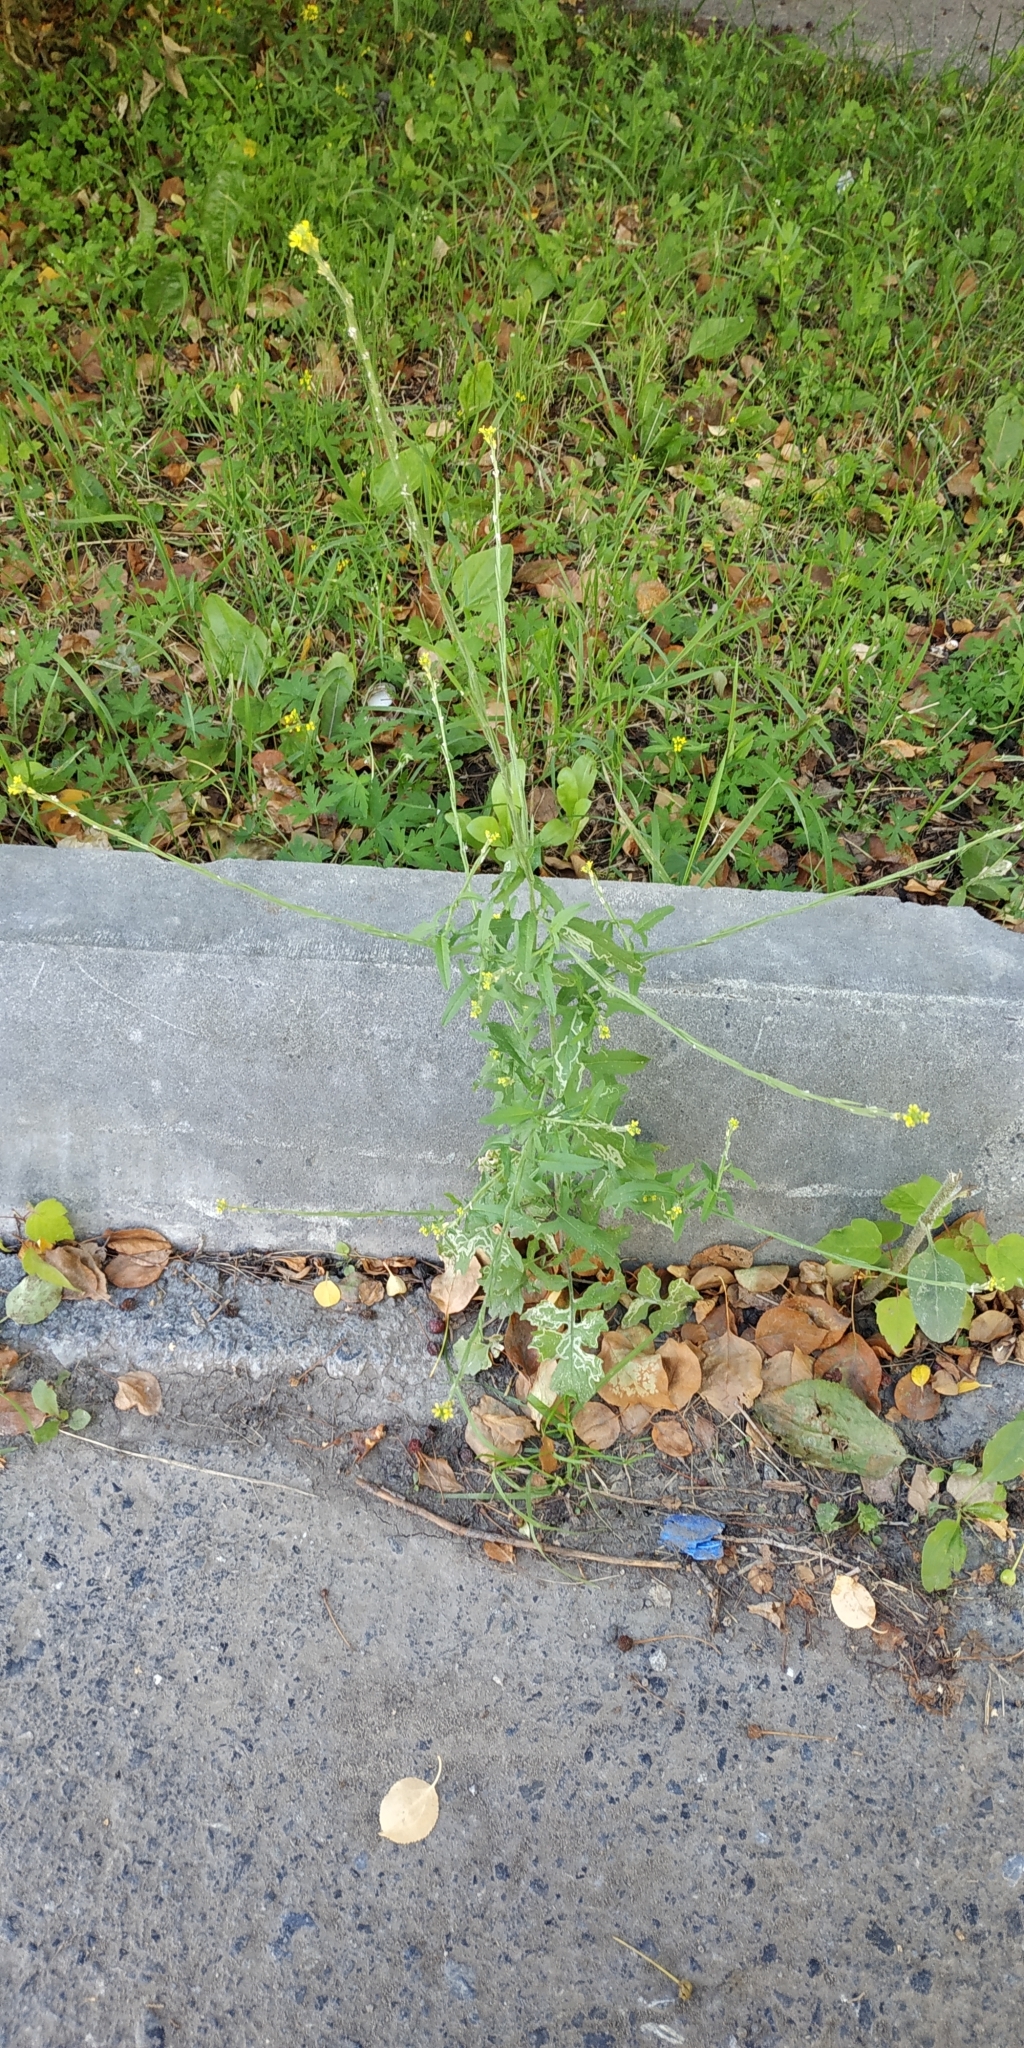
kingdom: Plantae
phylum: Tracheophyta
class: Magnoliopsida
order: Brassicales
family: Brassicaceae
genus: Sisymbrium
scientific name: Sisymbrium officinale
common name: Hedge mustard
